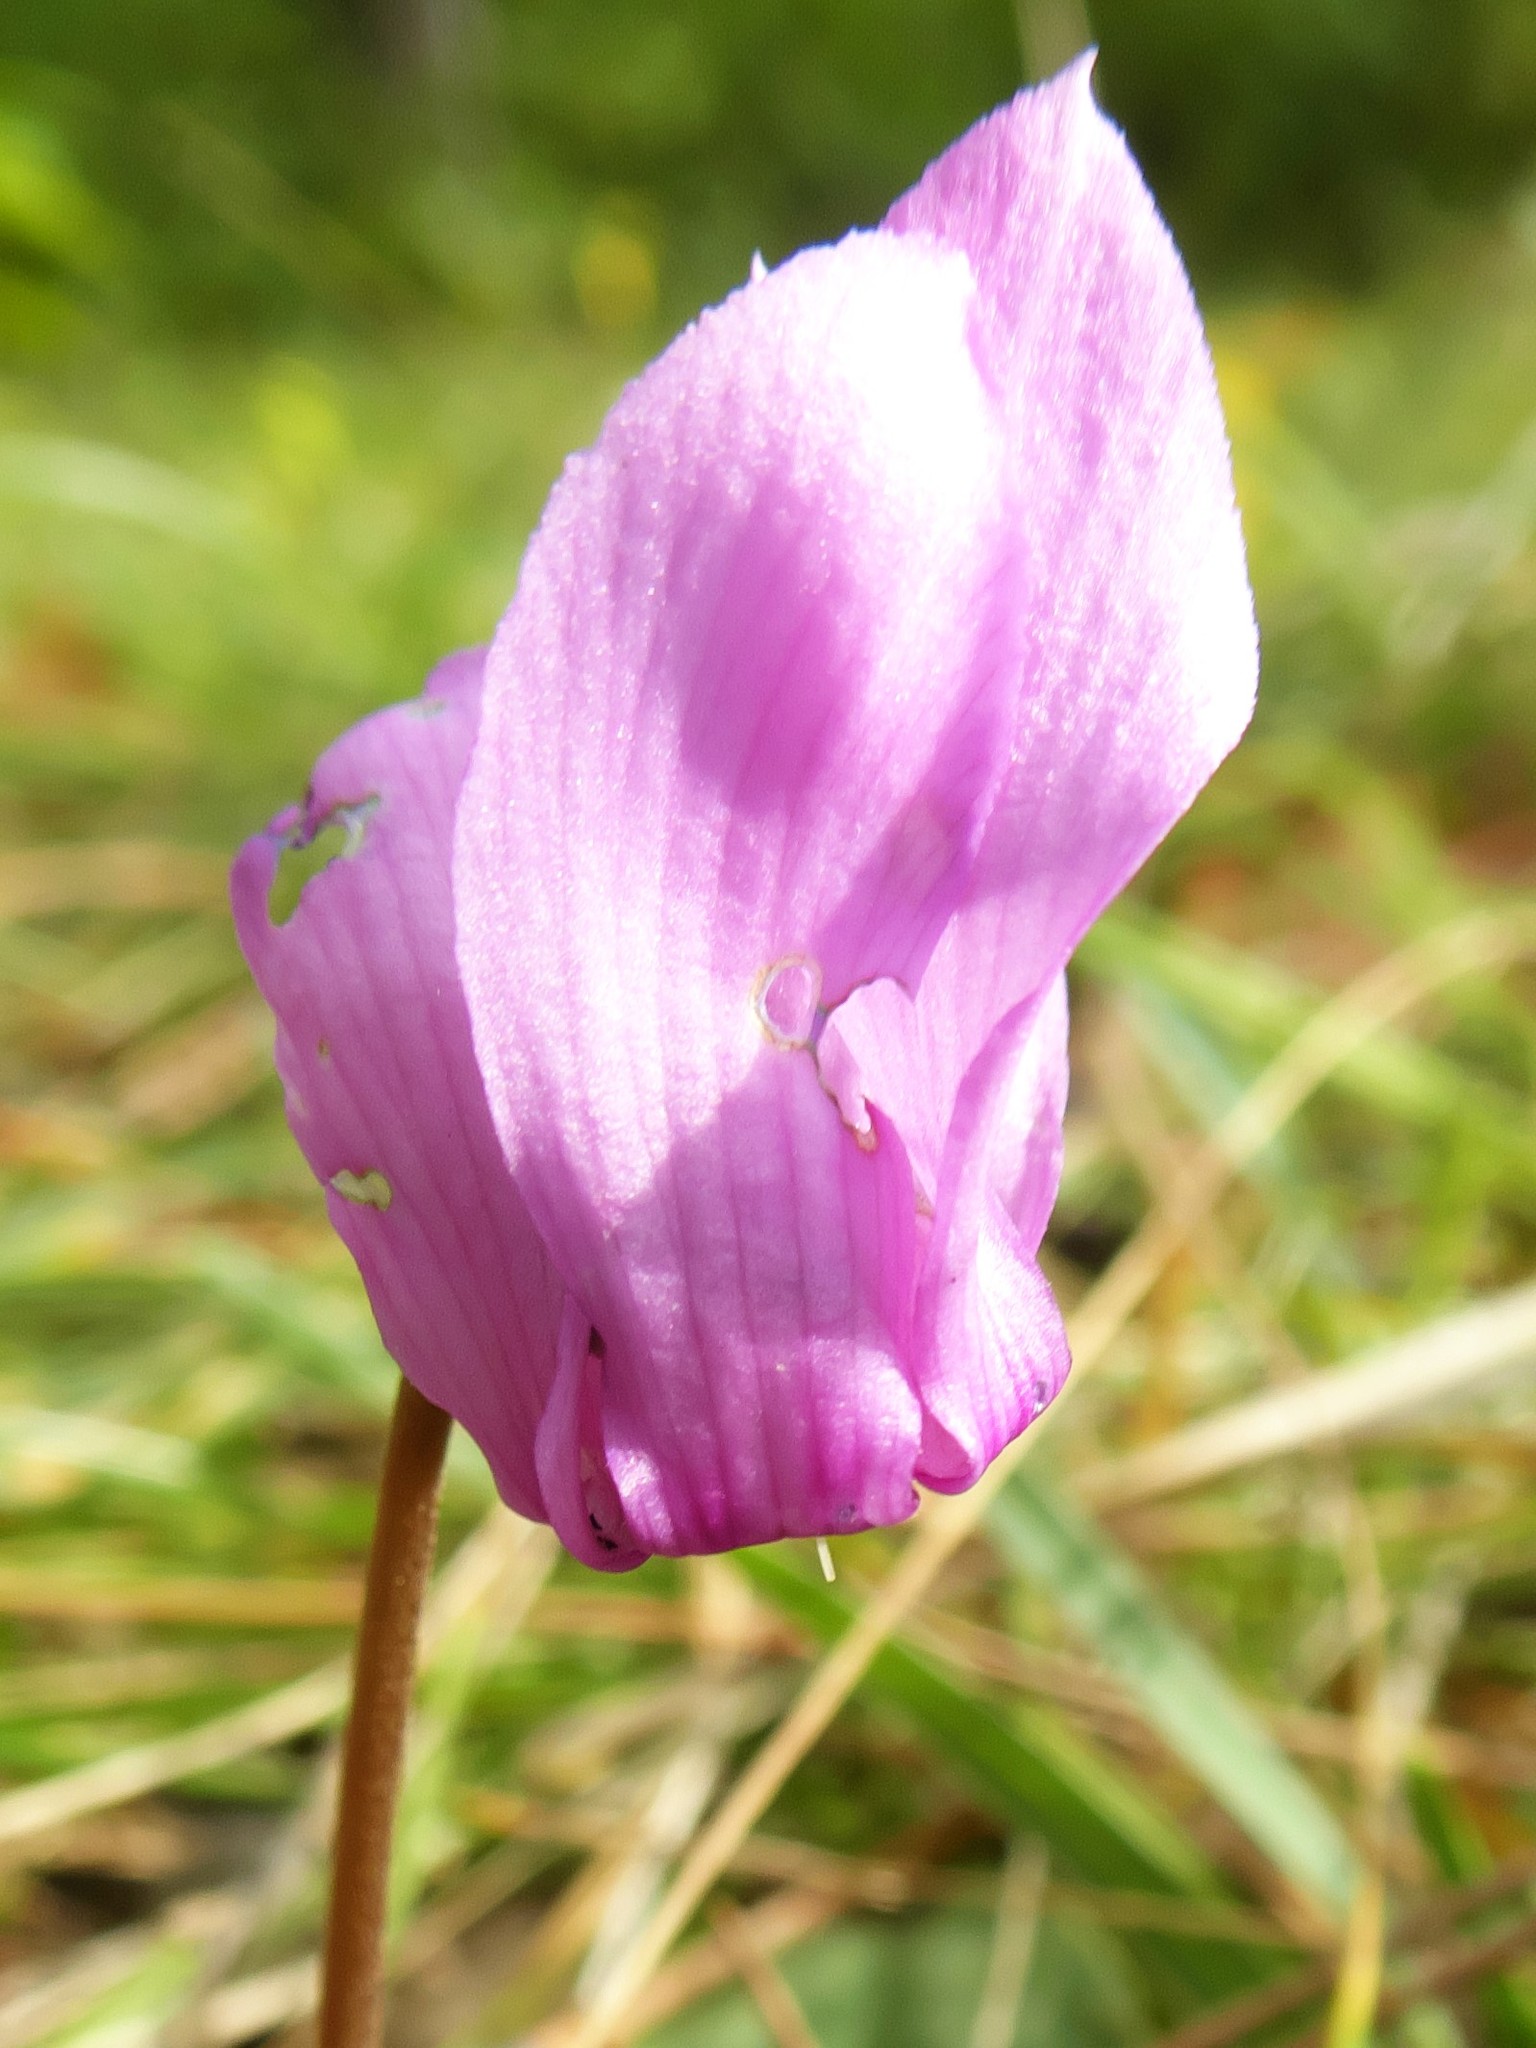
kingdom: Plantae
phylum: Tracheophyta
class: Magnoliopsida
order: Ericales
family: Primulaceae
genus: Cyclamen
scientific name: Cyclamen purpurascens
